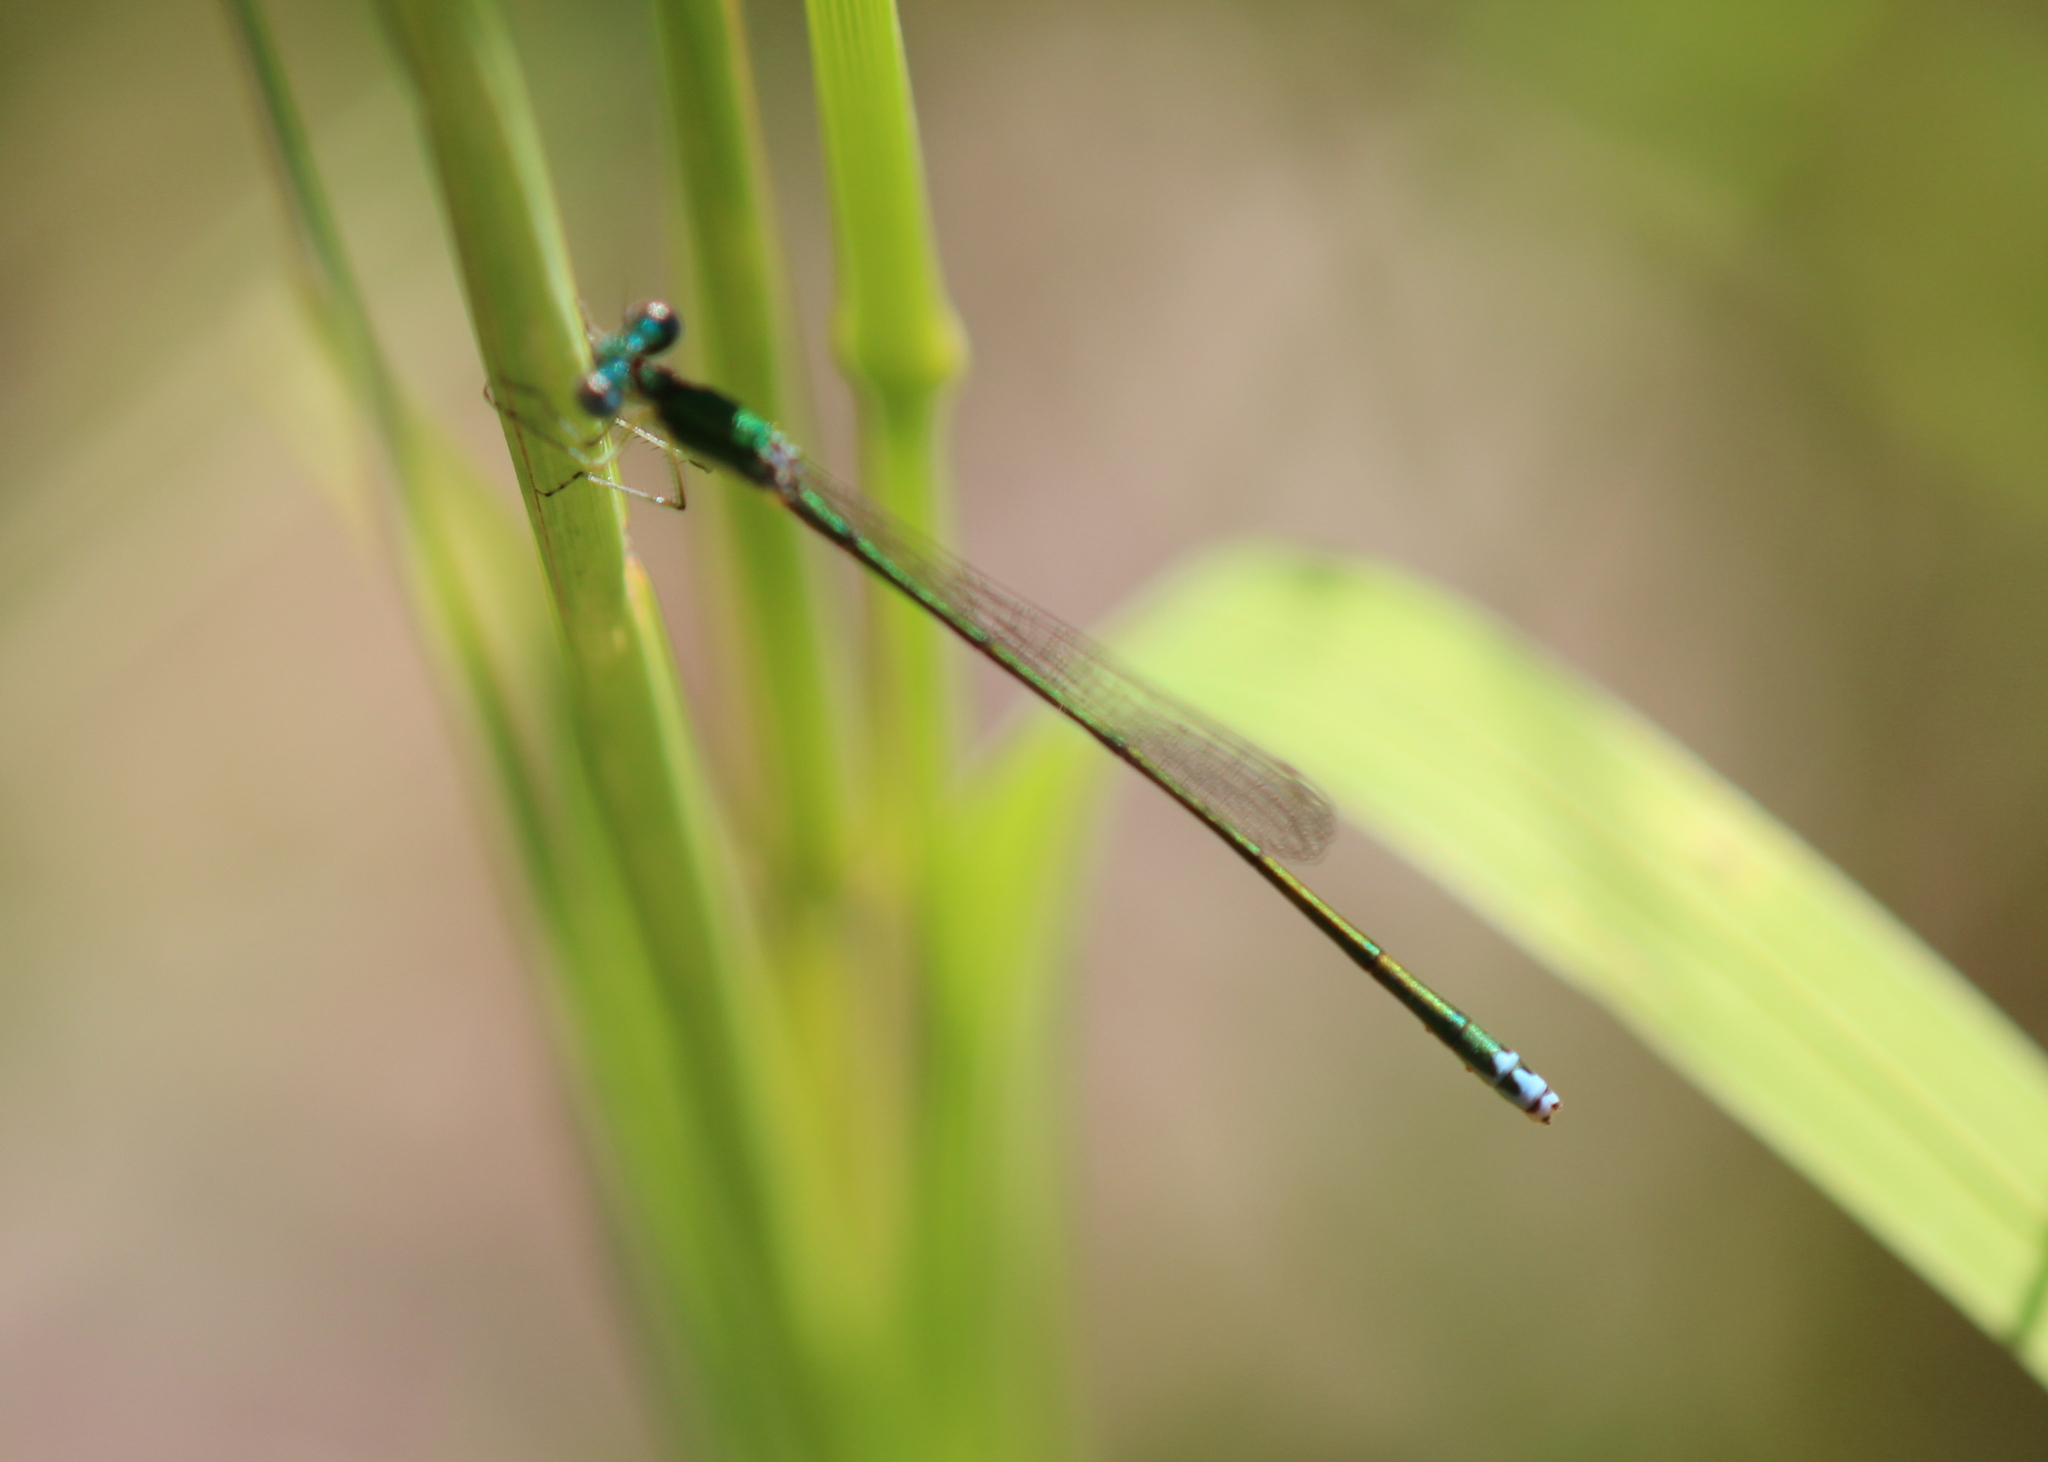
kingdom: Animalia
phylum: Arthropoda
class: Insecta
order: Odonata
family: Coenagrionidae
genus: Nehalennia
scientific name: Nehalennia irene
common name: Sedge sprite
